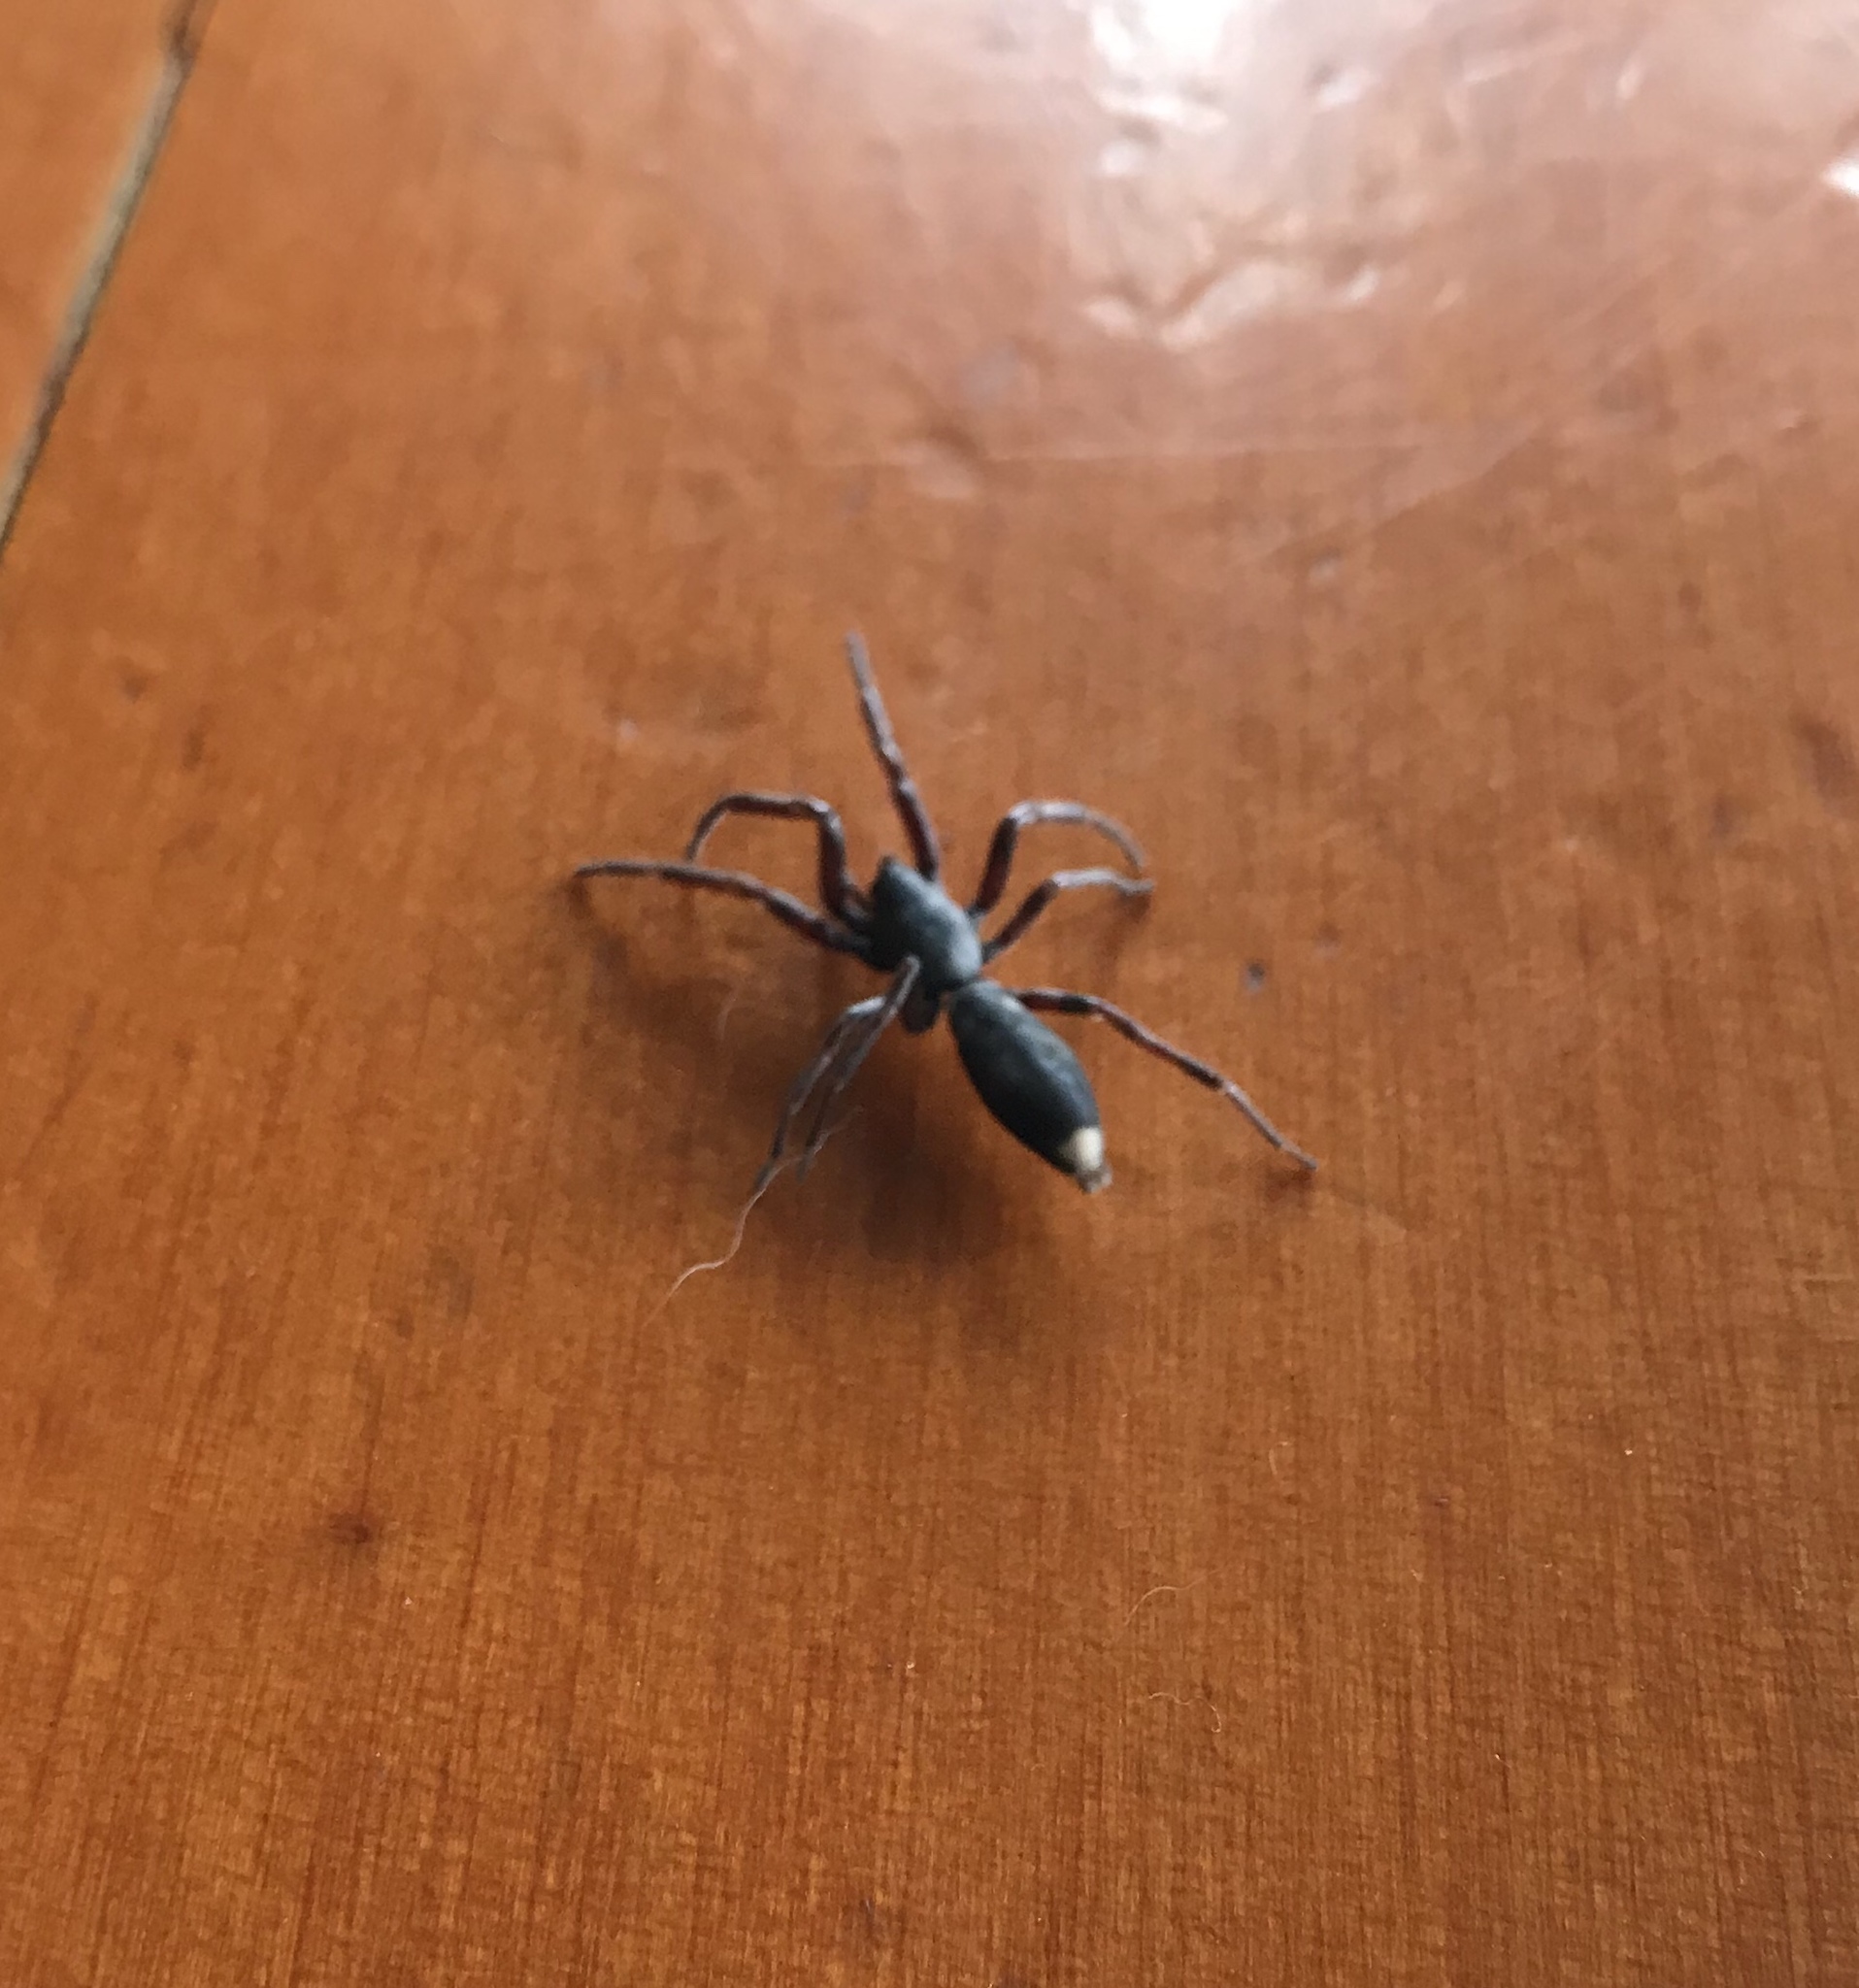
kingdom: Animalia
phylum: Arthropoda
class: Arachnida
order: Araneae
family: Lamponidae
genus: Lampona
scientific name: Lampona murina
